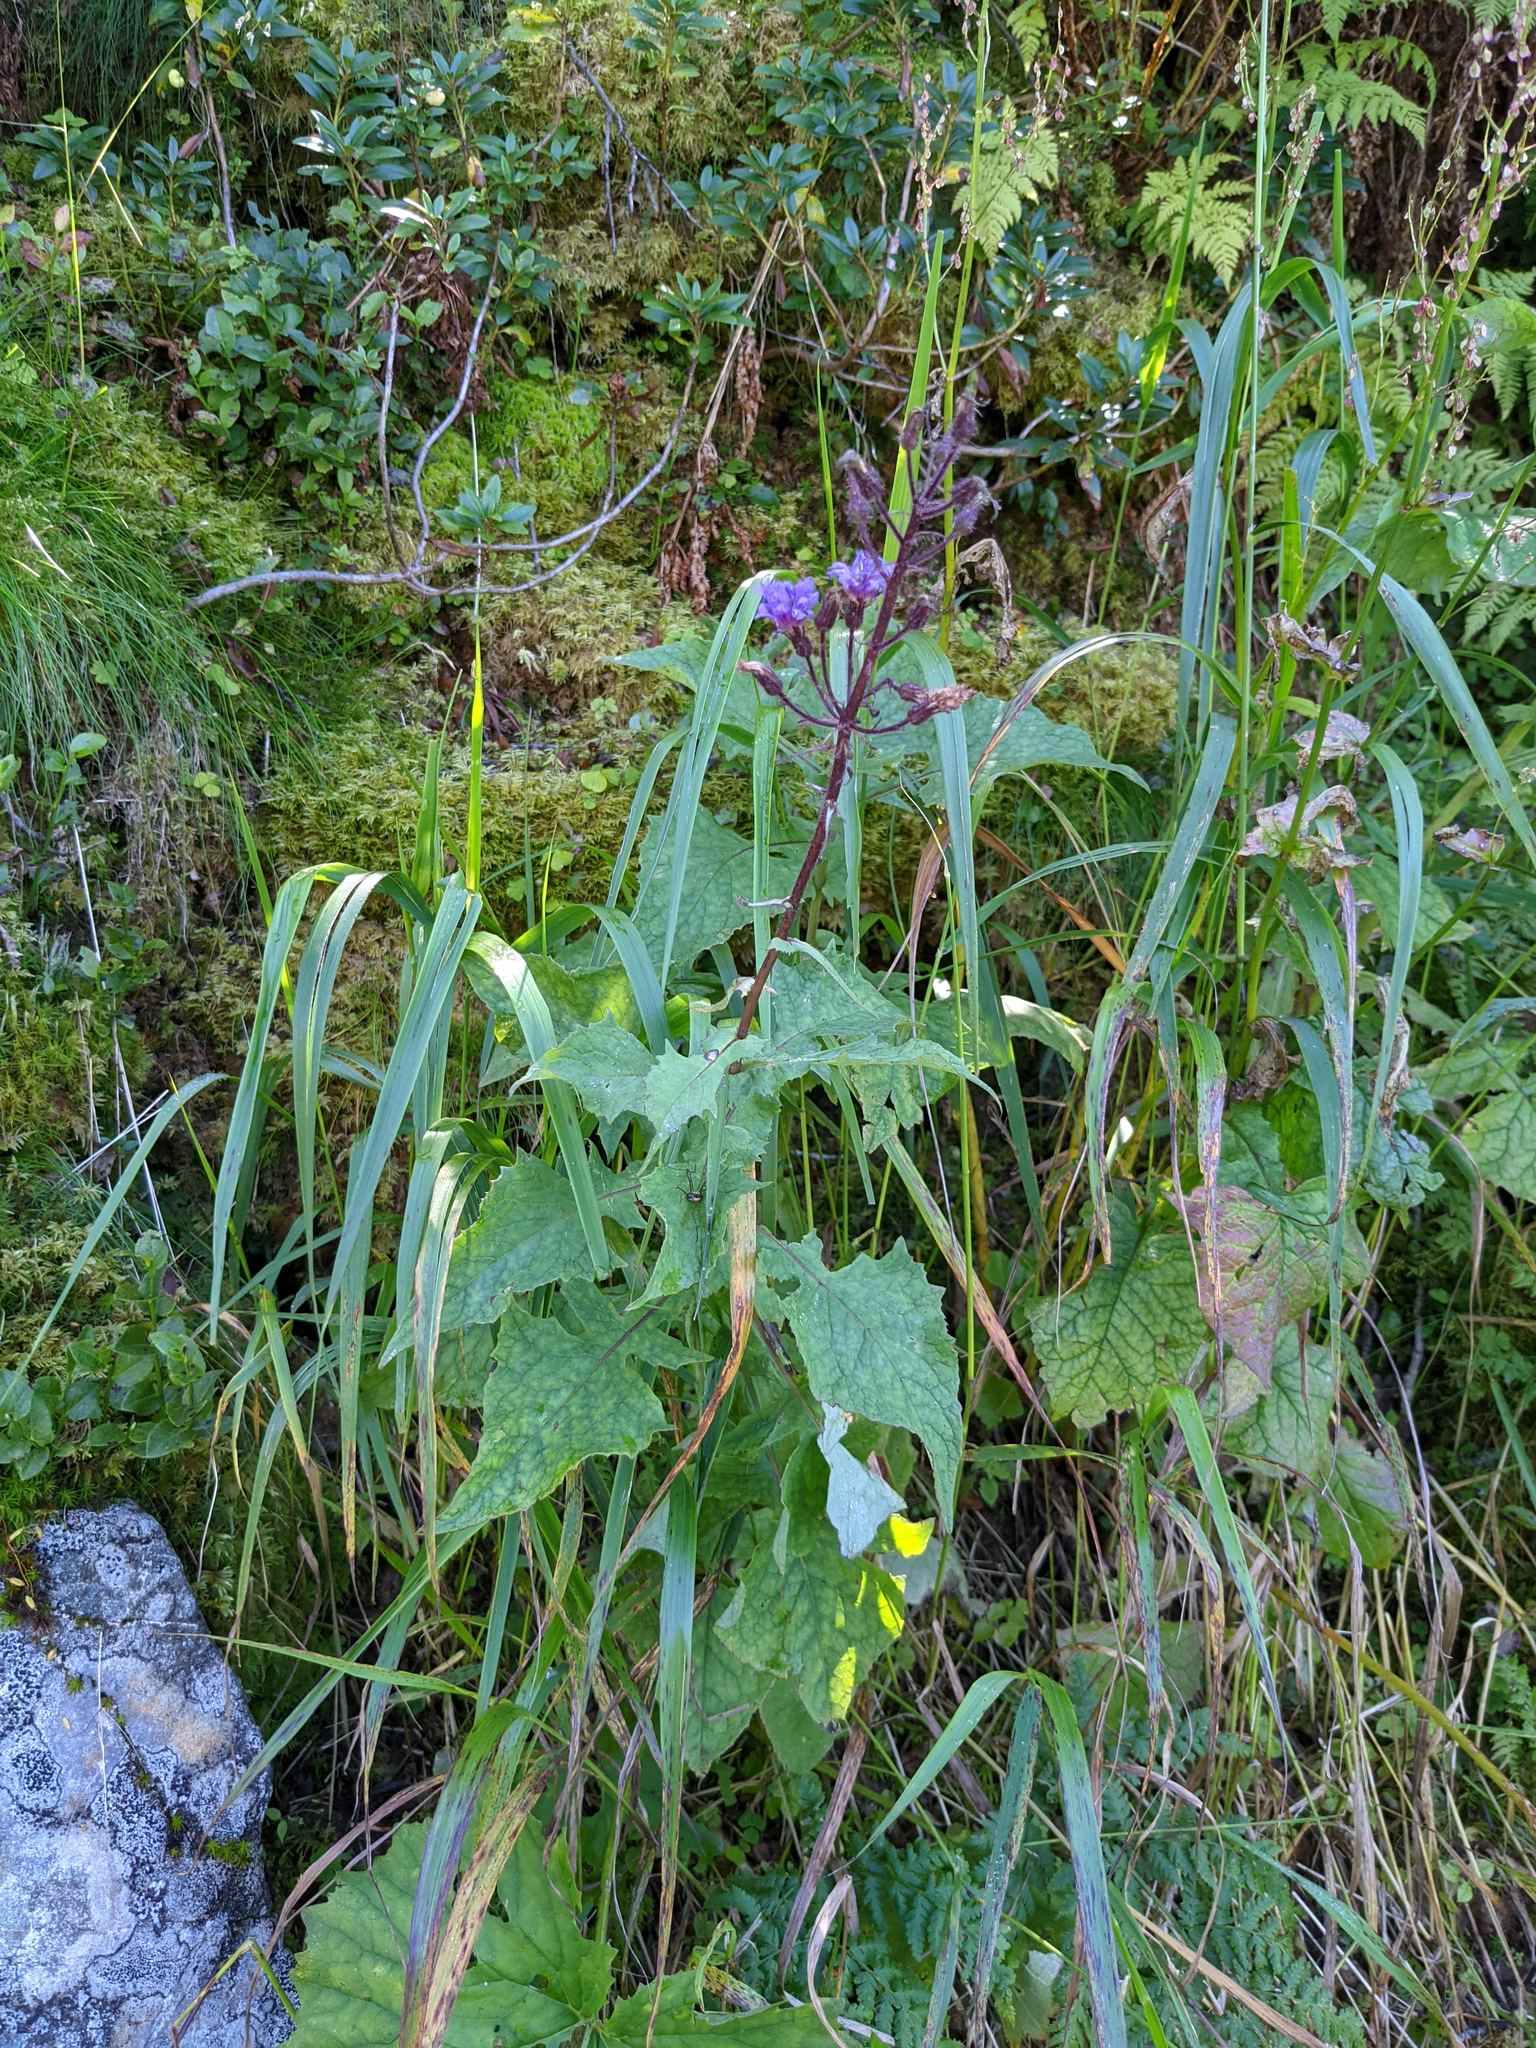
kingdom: Plantae
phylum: Tracheophyta
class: Magnoliopsida
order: Asterales
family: Asteraceae
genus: Cicerbita
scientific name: Cicerbita alpina
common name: Alpine blue-sow-thistle
